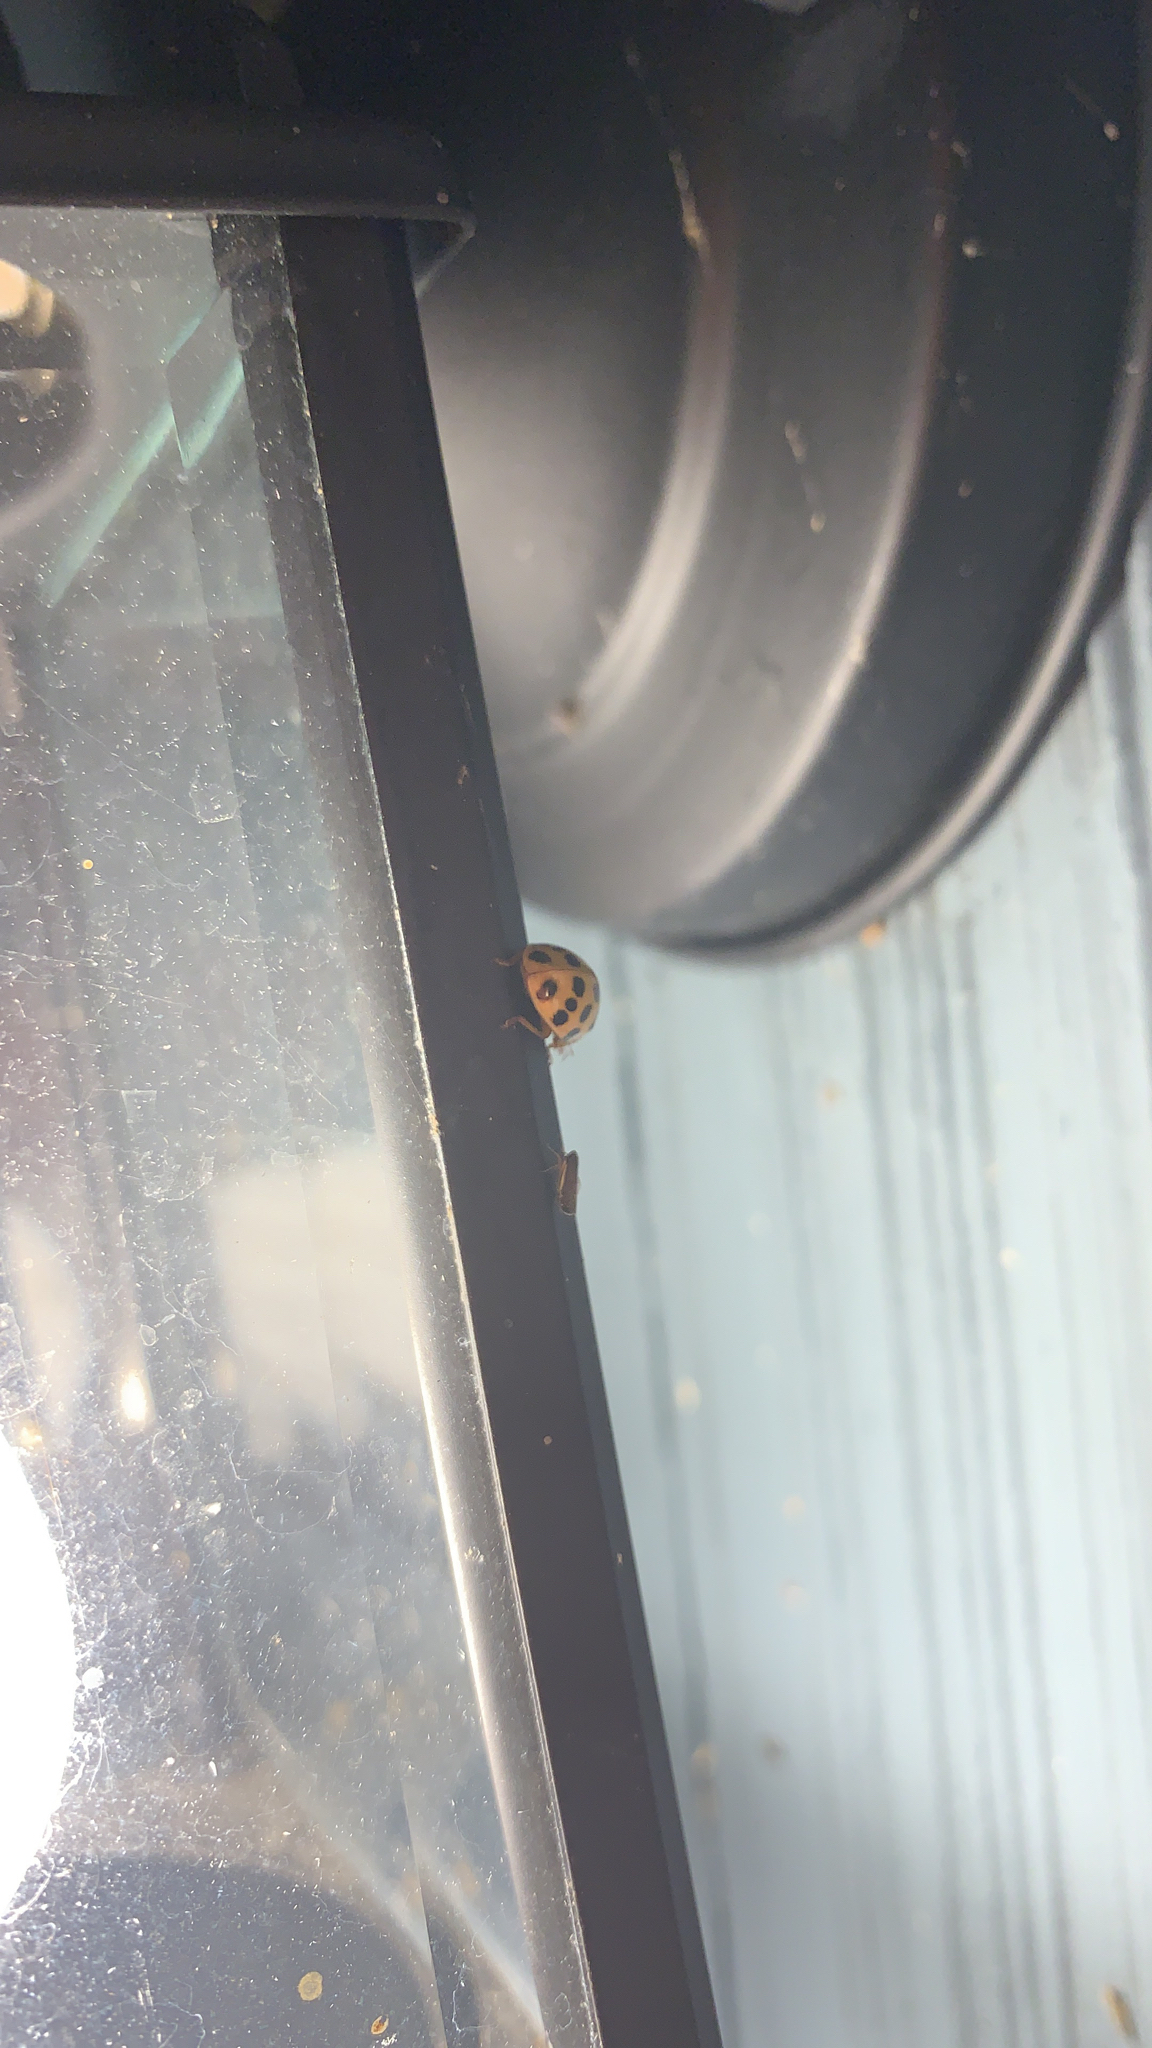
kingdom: Animalia
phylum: Arthropoda
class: Insecta
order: Coleoptera
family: Coccinellidae
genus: Harmonia
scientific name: Harmonia axyridis
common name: Harlequin ladybird
